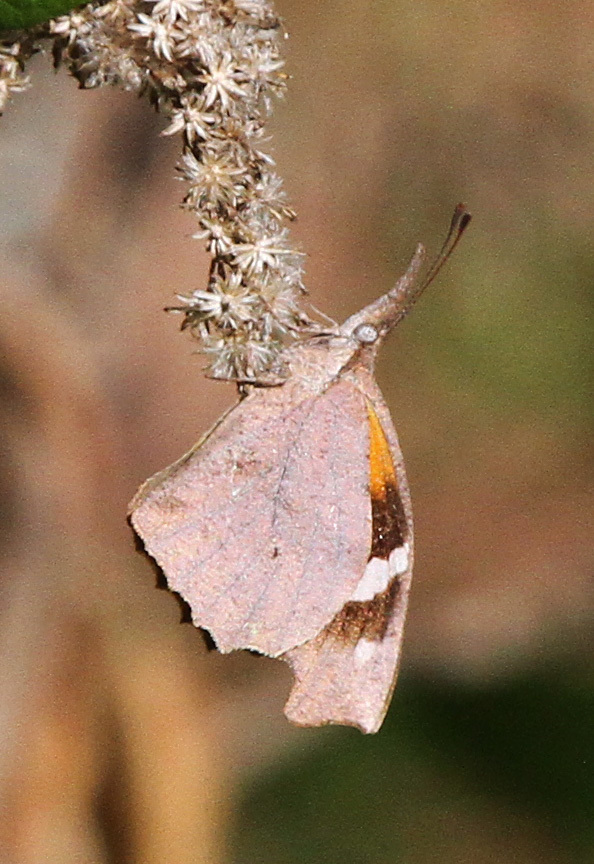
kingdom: Animalia
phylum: Arthropoda
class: Insecta
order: Lepidoptera
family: Nymphalidae
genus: Libytheana
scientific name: Libytheana carinenta
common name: American snout
